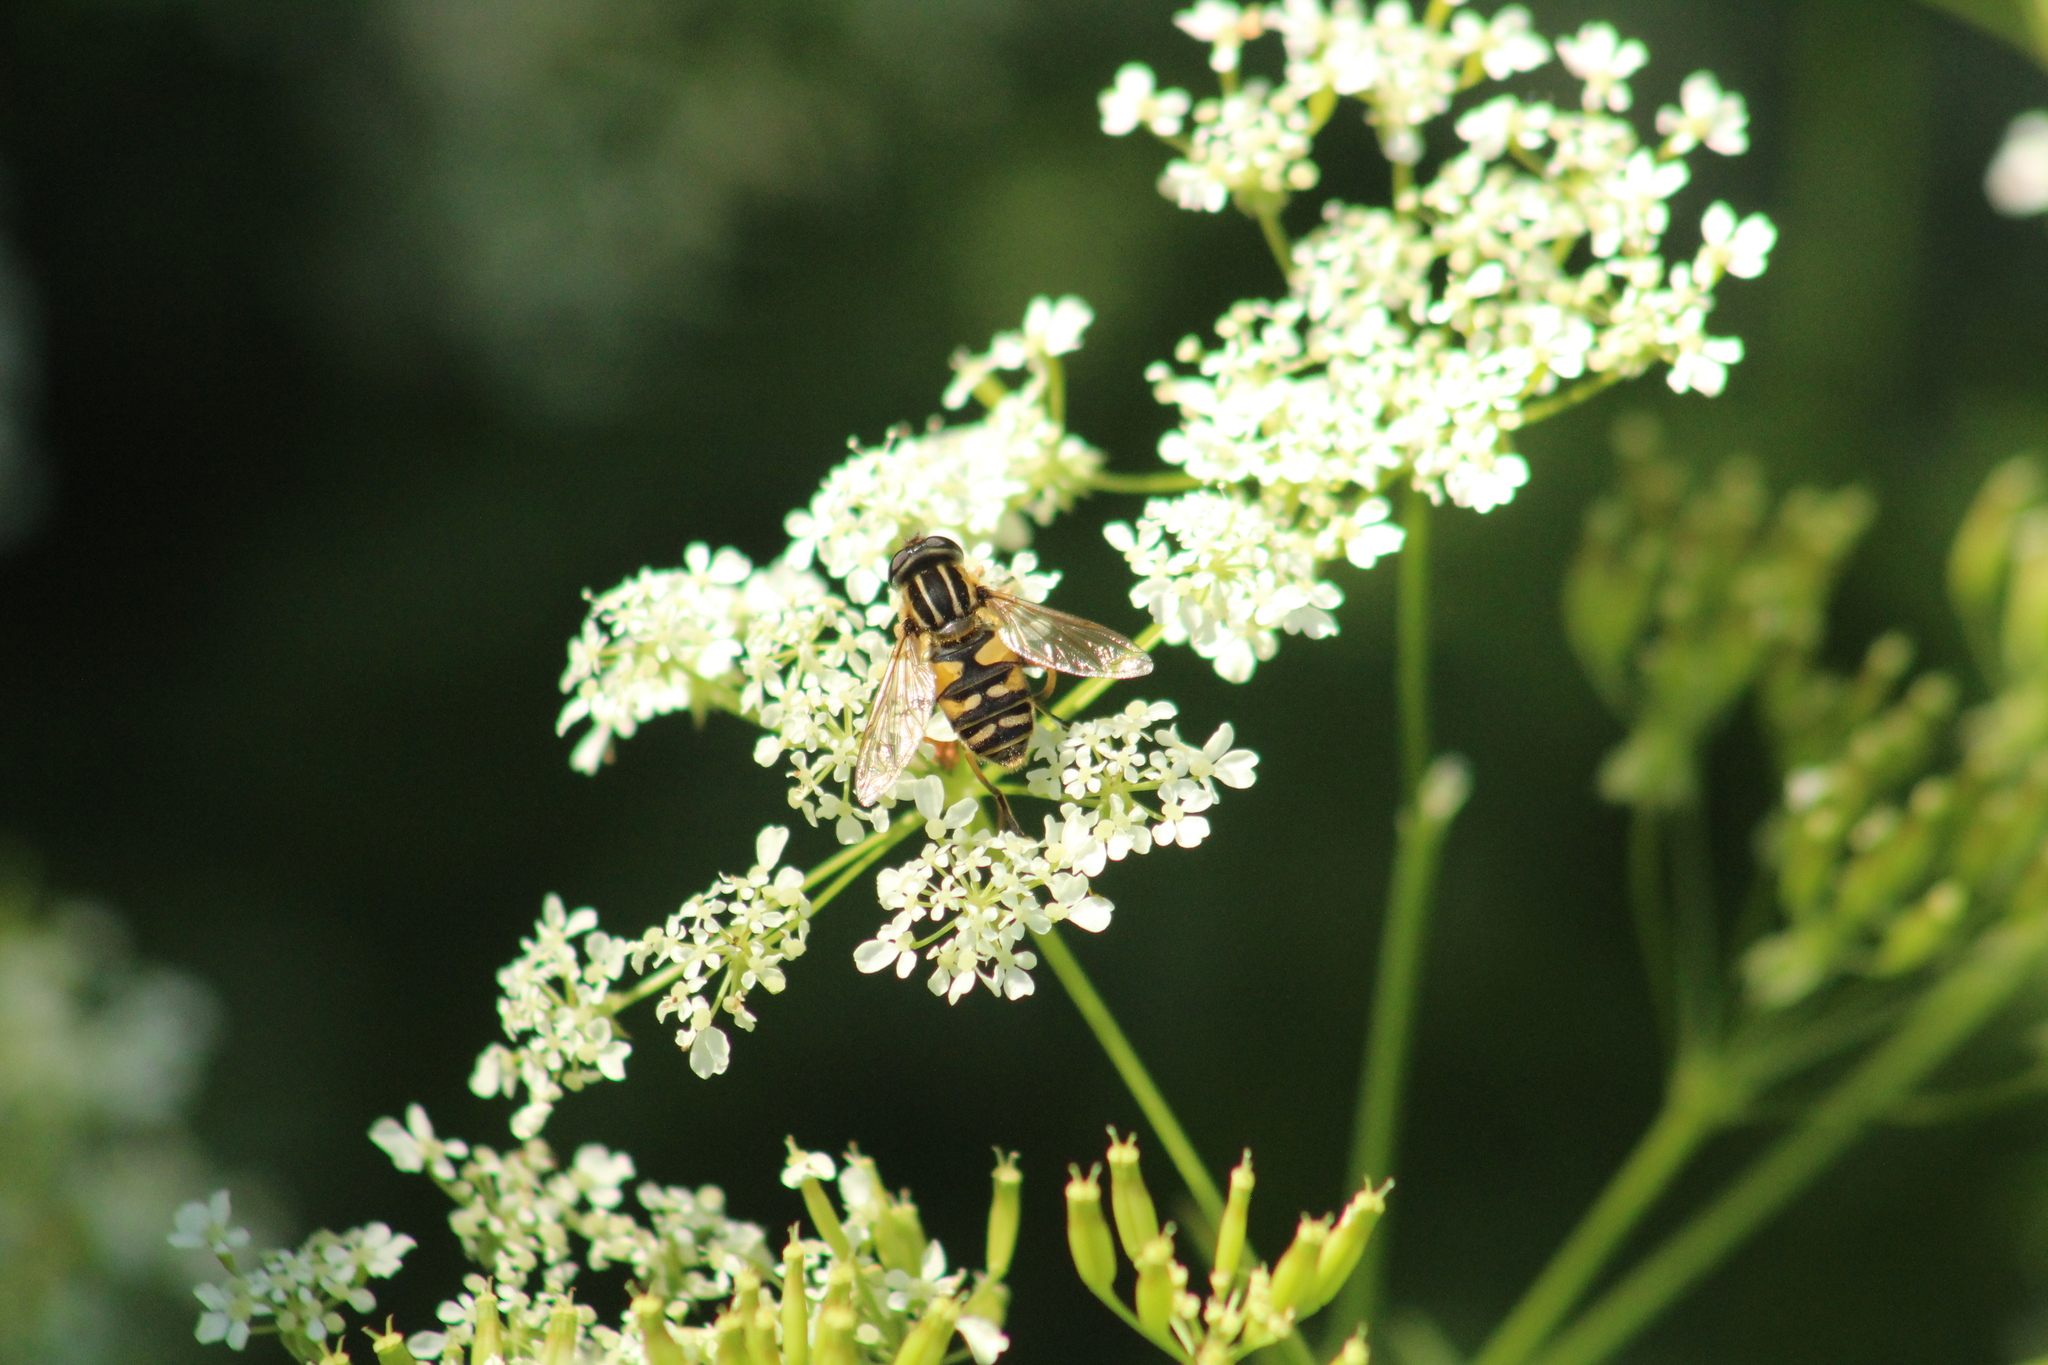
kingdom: Animalia
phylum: Arthropoda
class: Insecta
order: Diptera
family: Syrphidae
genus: Helophilus
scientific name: Helophilus pendulus
